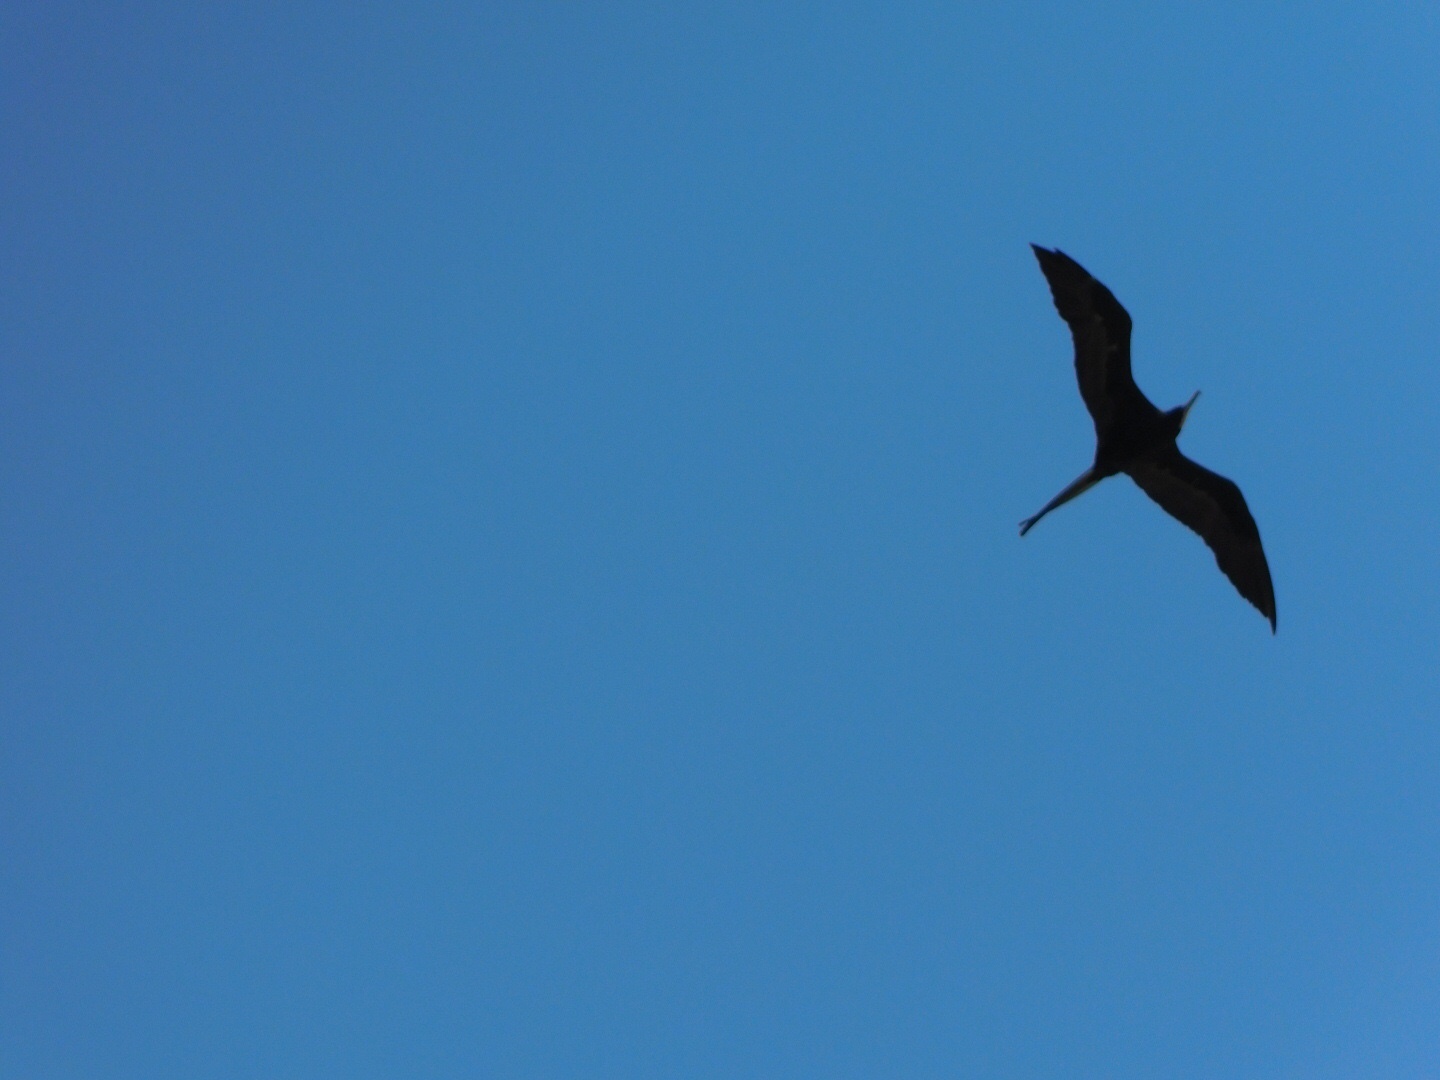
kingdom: Animalia
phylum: Chordata
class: Aves
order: Suliformes
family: Fregatidae
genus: Fregata
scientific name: Fregata magnificens
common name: Magnificent frigatebird
